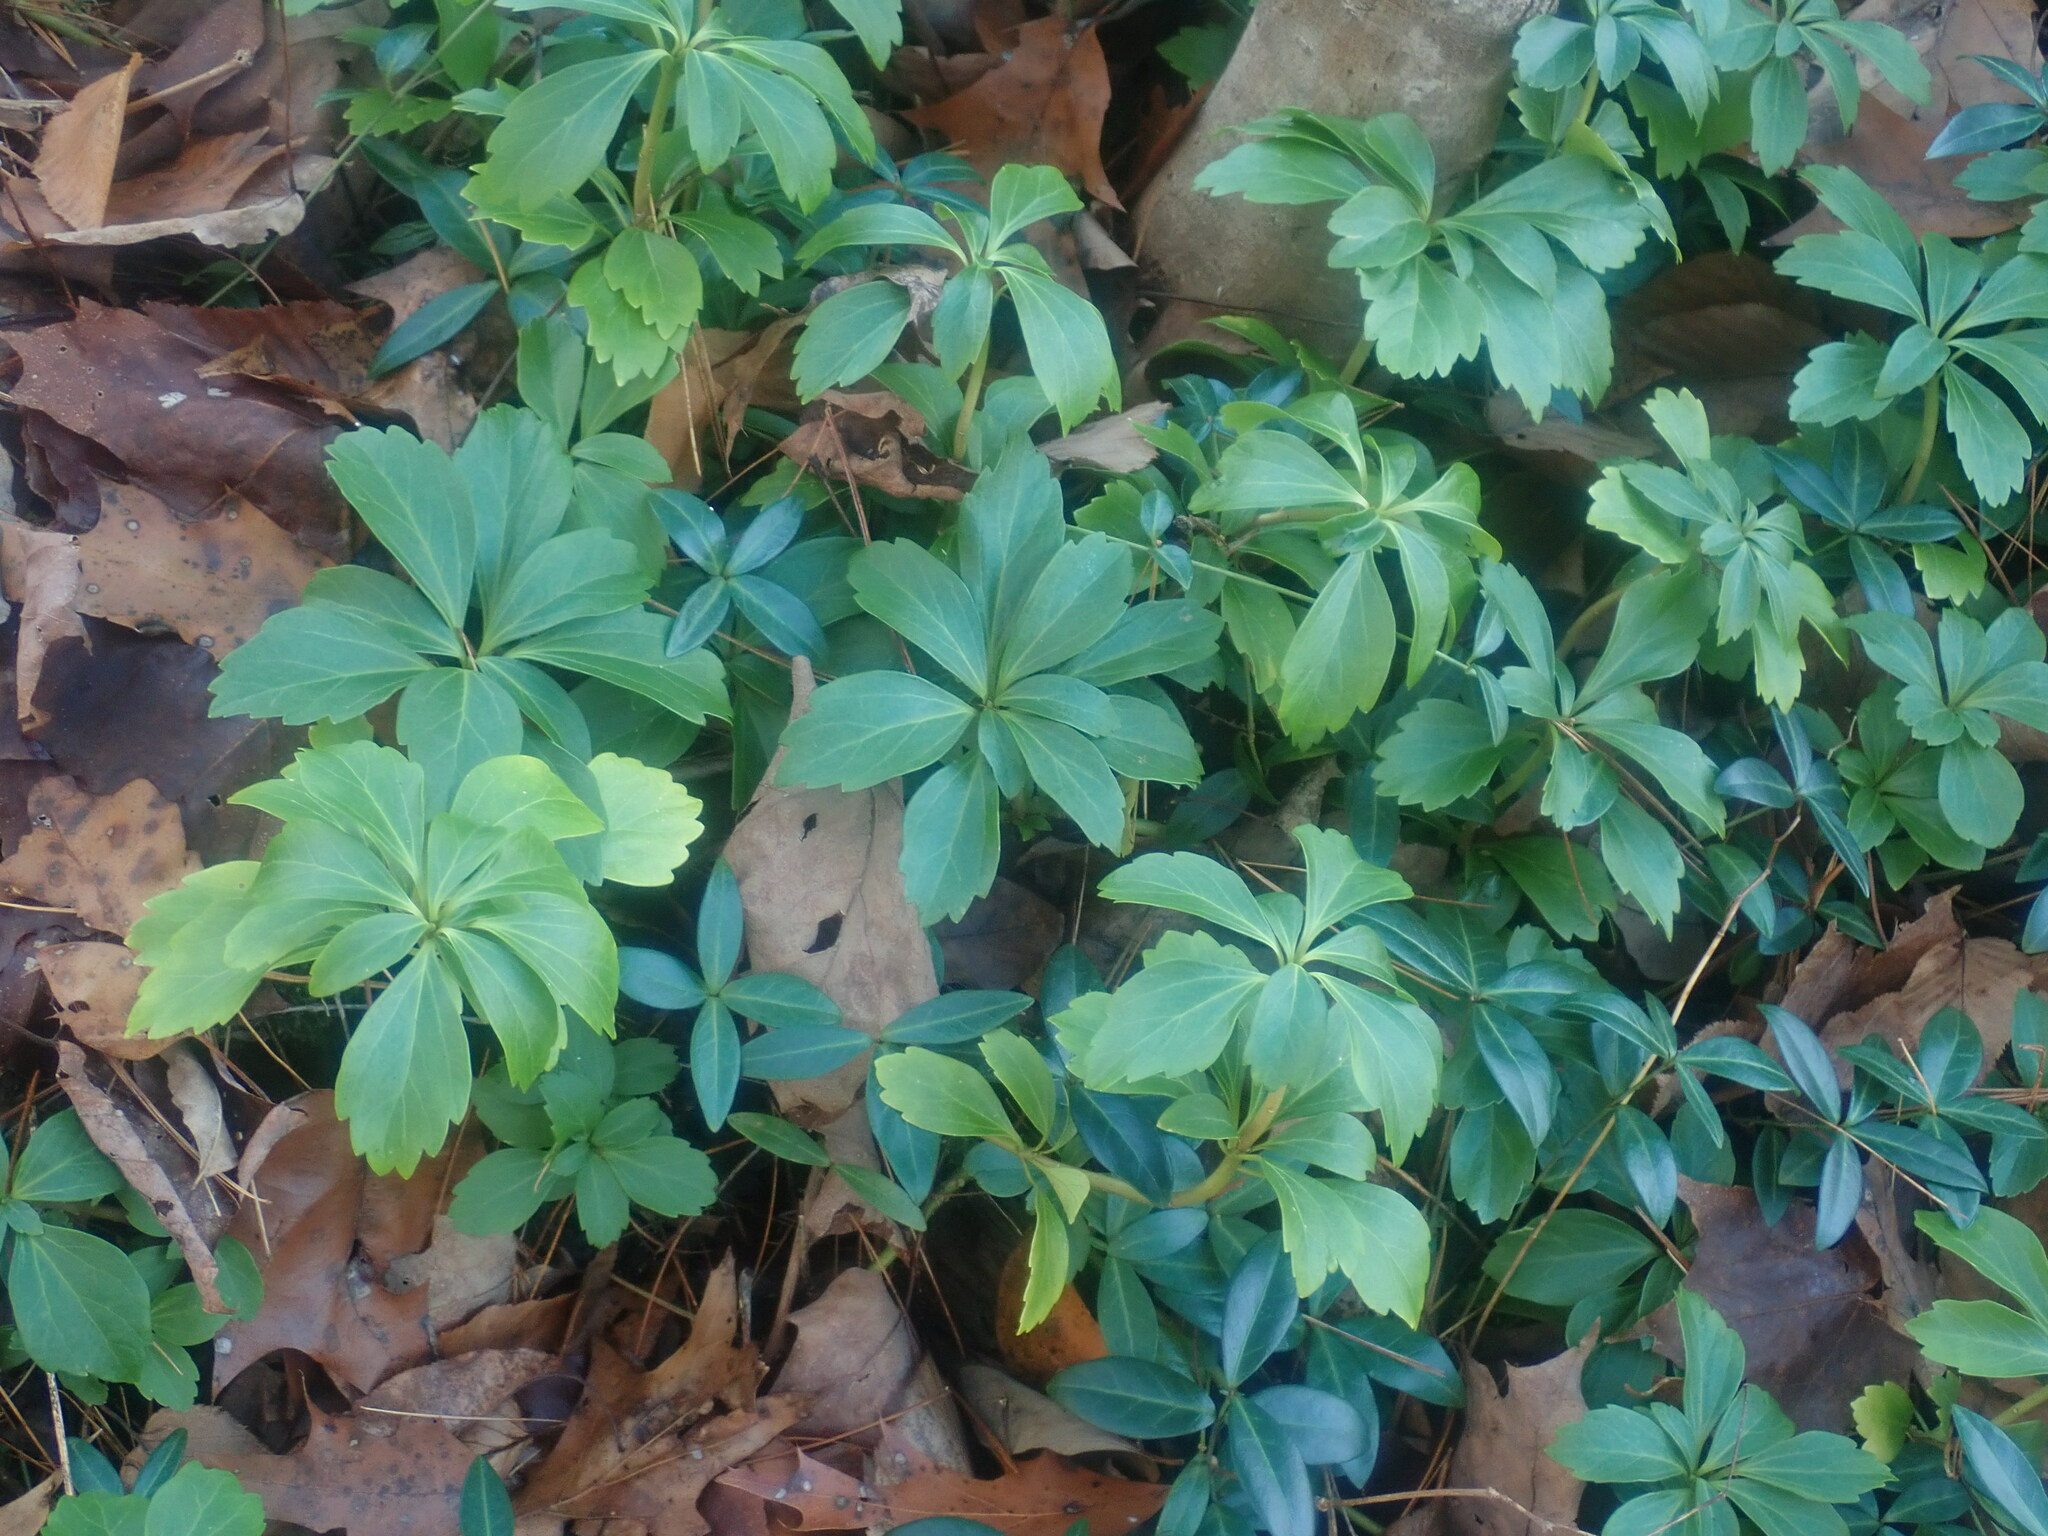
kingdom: Plantae
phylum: Tracheophyta
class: Magnoliopsida
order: Buxales
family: Buxaceae
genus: Pachysandra
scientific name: Pachysandra terminalis
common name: Japanese pachysandra
